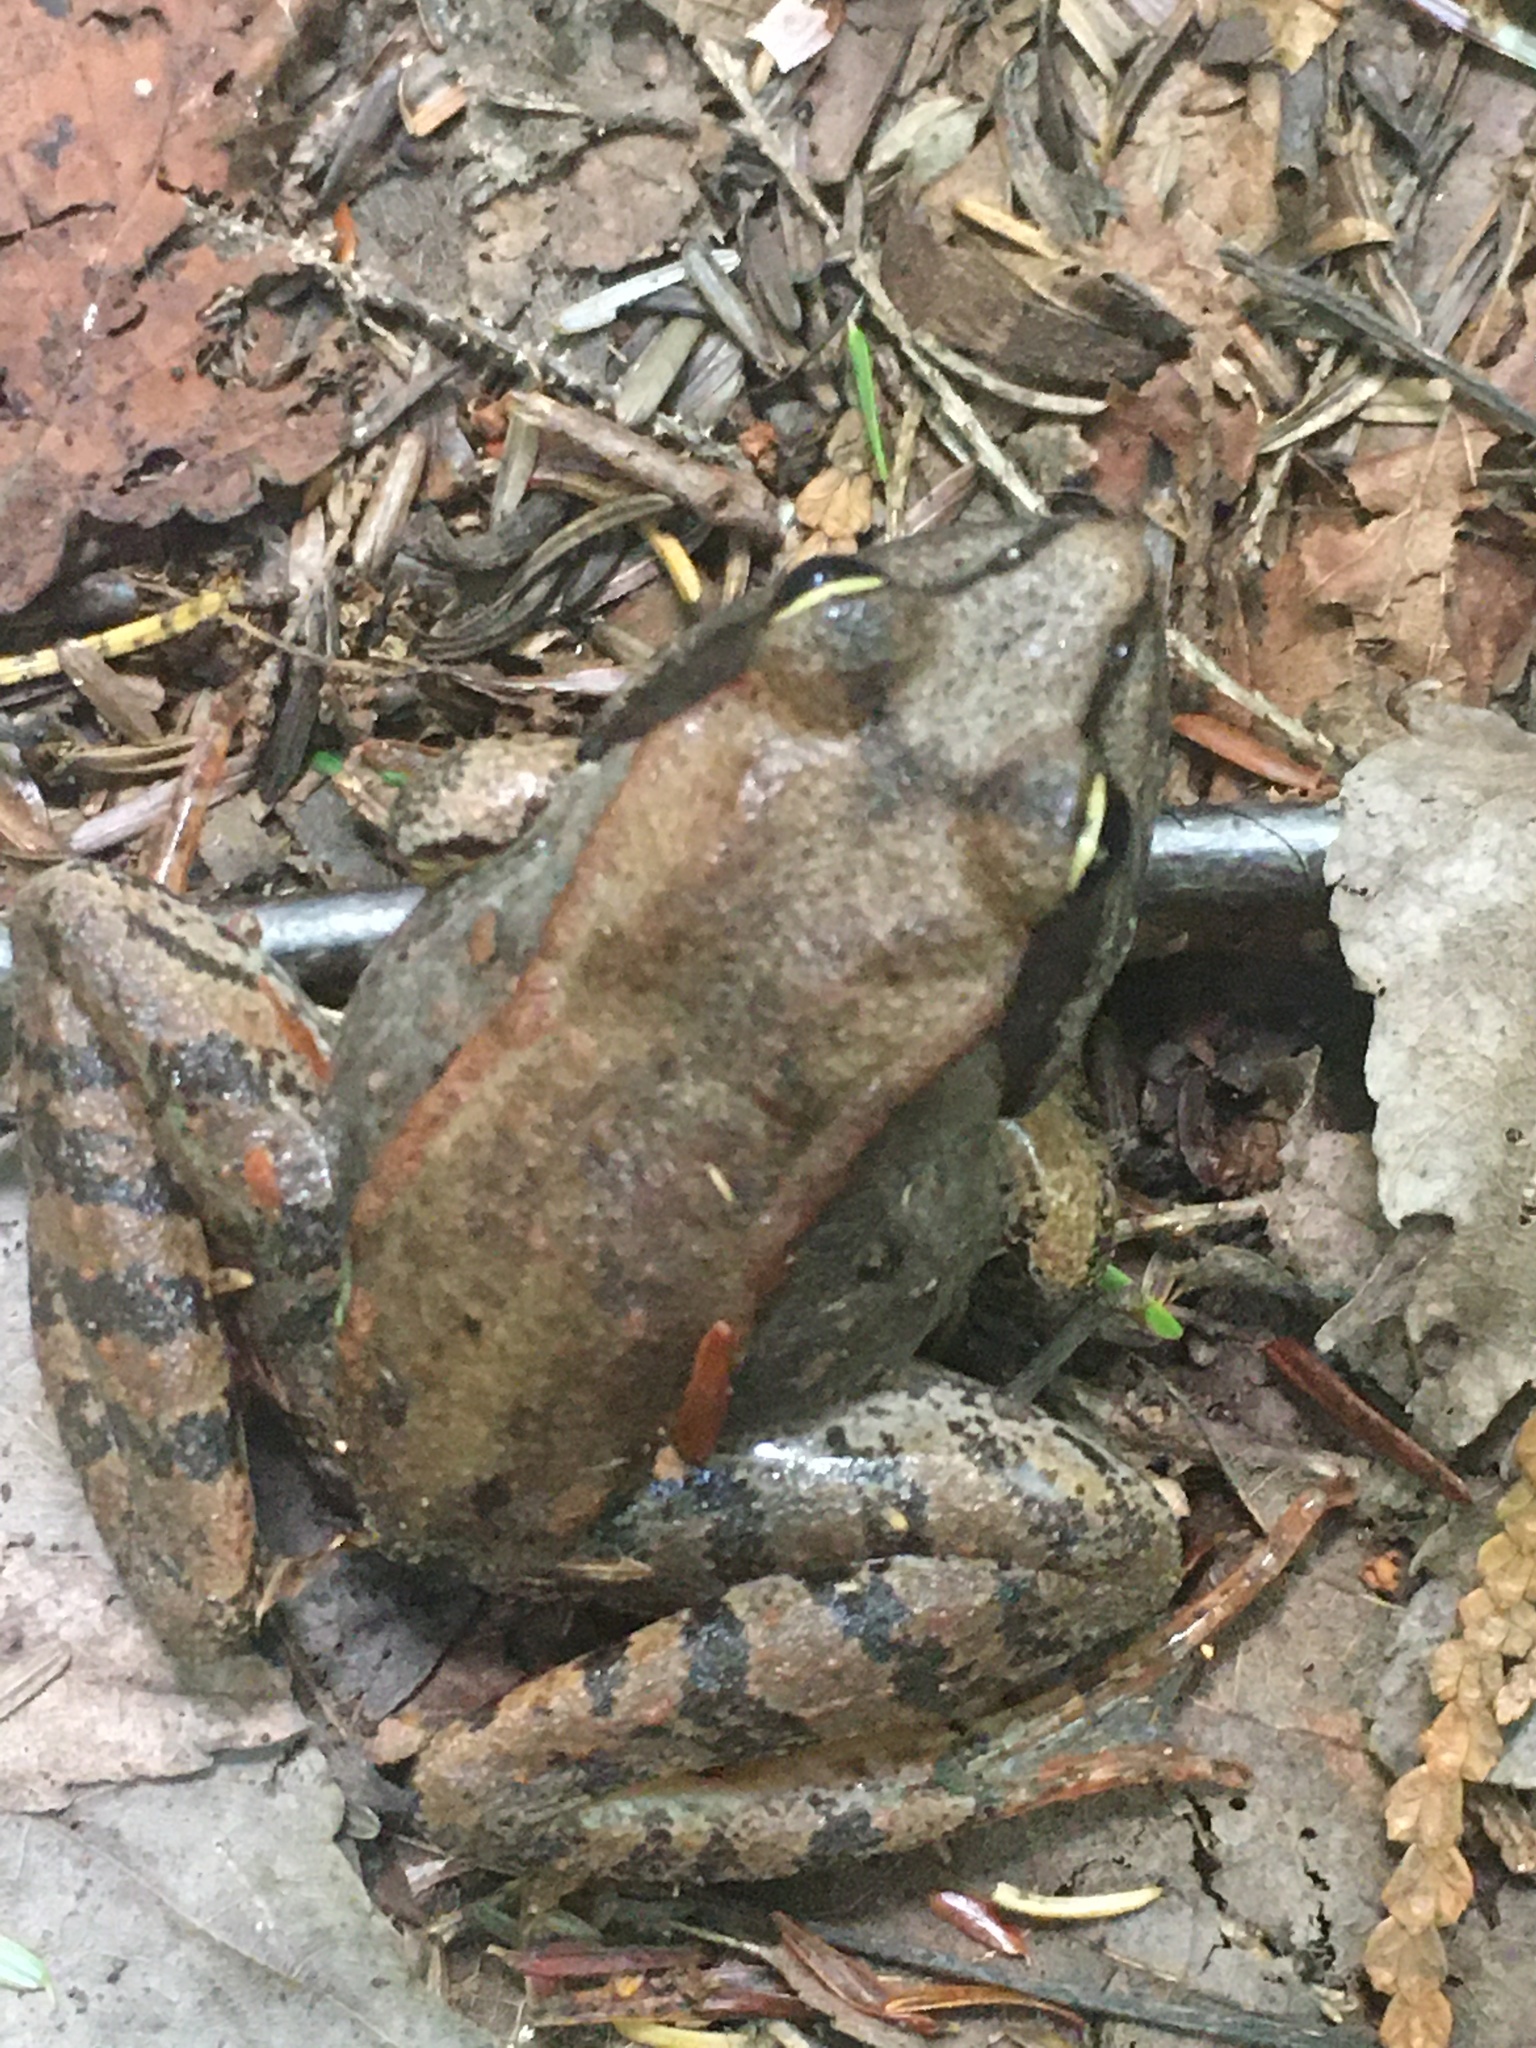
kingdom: Animalia
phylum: Chordata
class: Amphibia
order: Anura
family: Ranidae
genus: Lithobates
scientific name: Lithobates sylvaticus
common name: Wood frog
